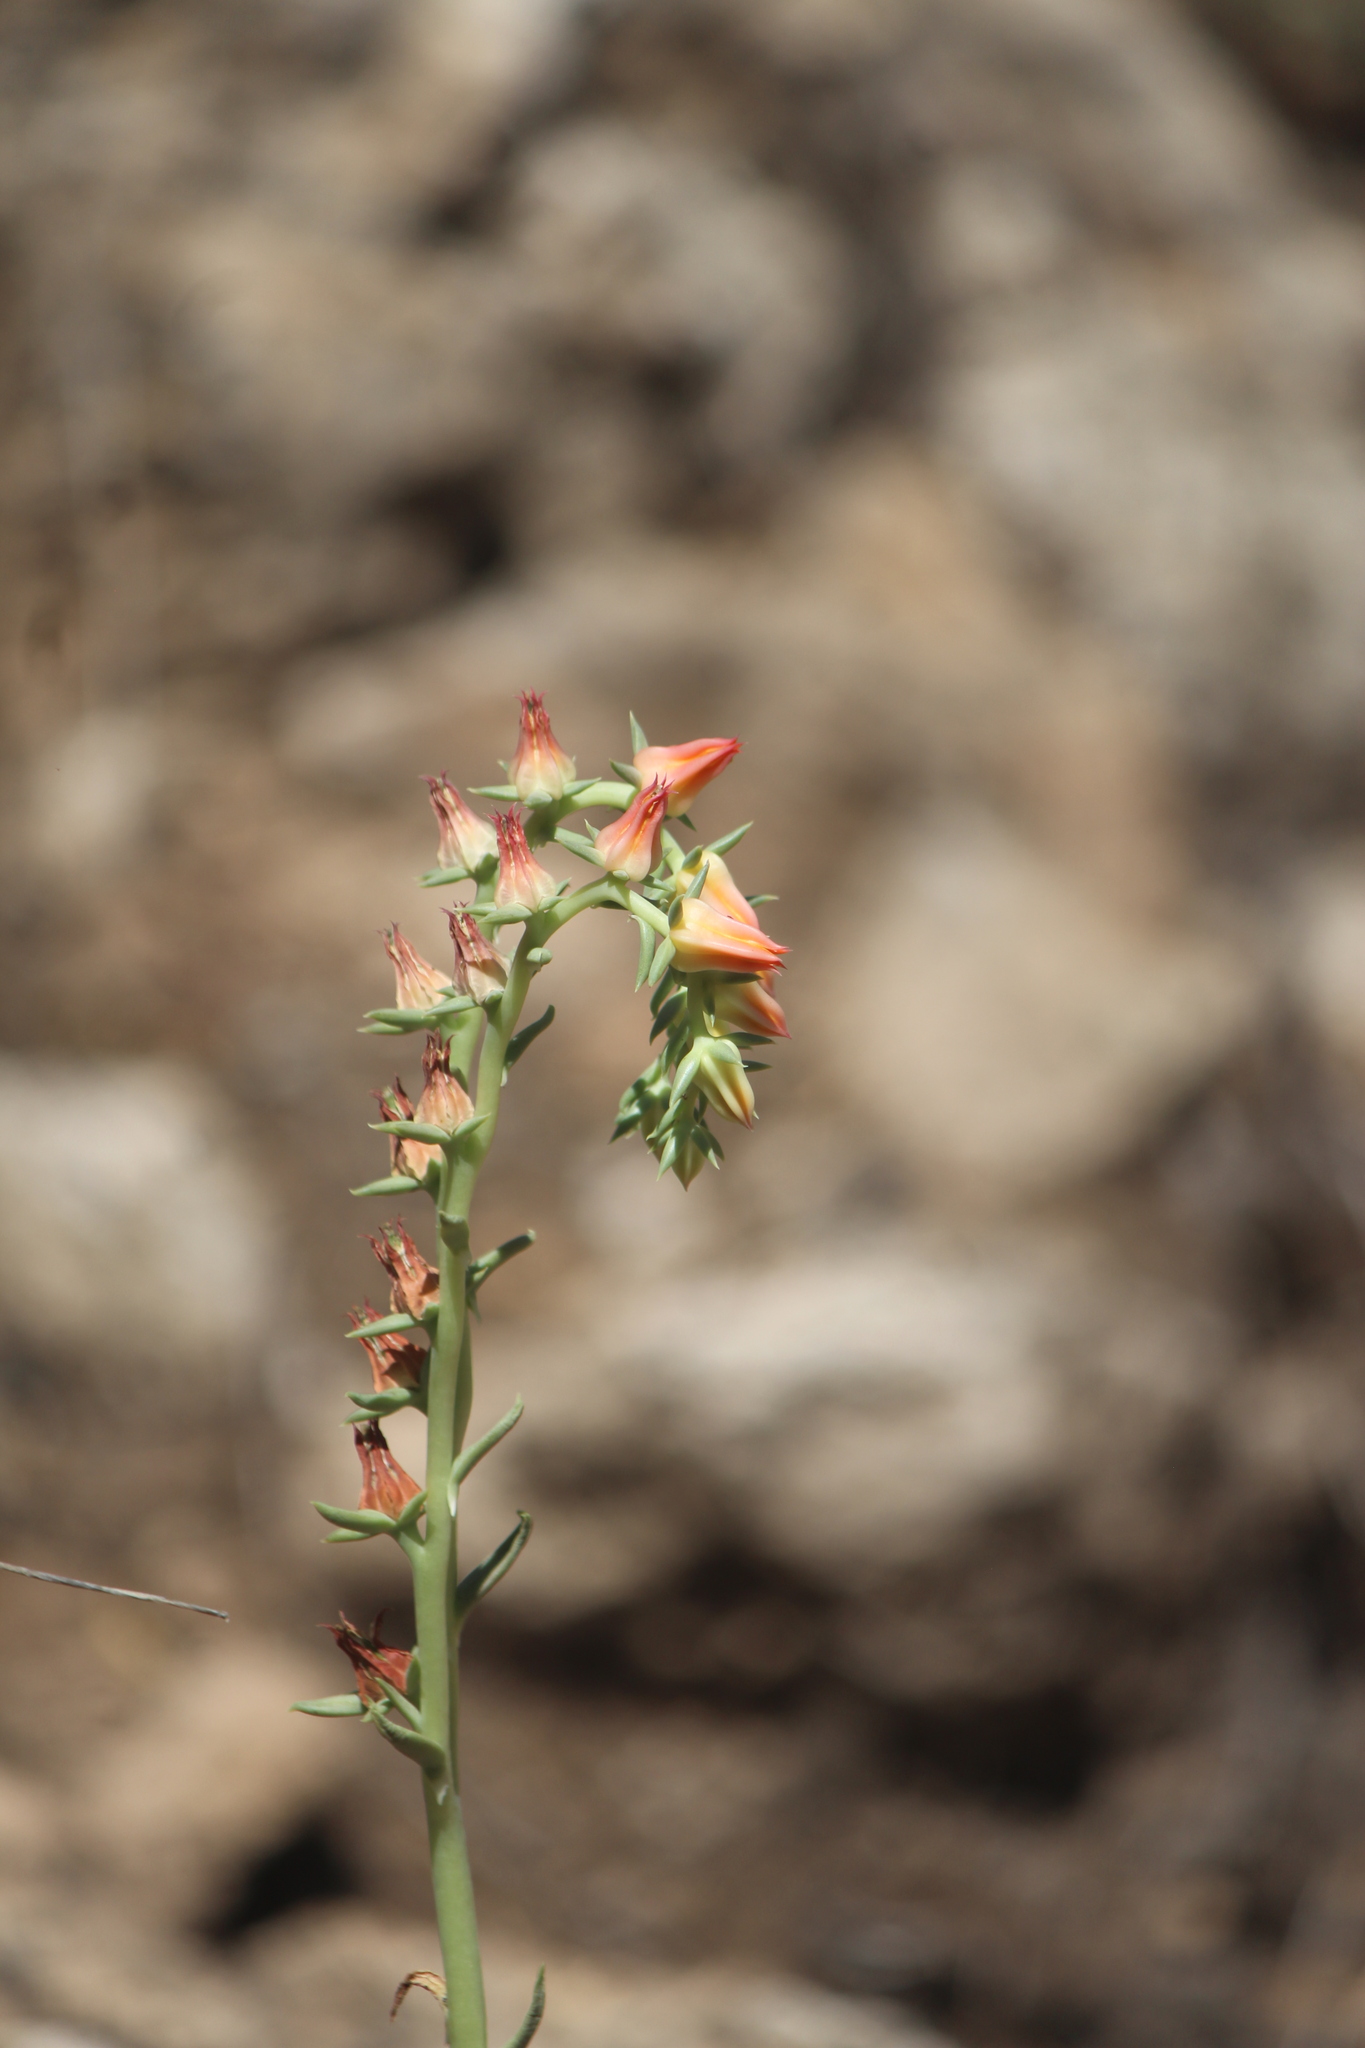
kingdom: Plantae
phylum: Tracheophyta
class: Magnoliopsida
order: Saxifragales
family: Crassulaceae
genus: Echeveria
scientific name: Echeveria bifida
